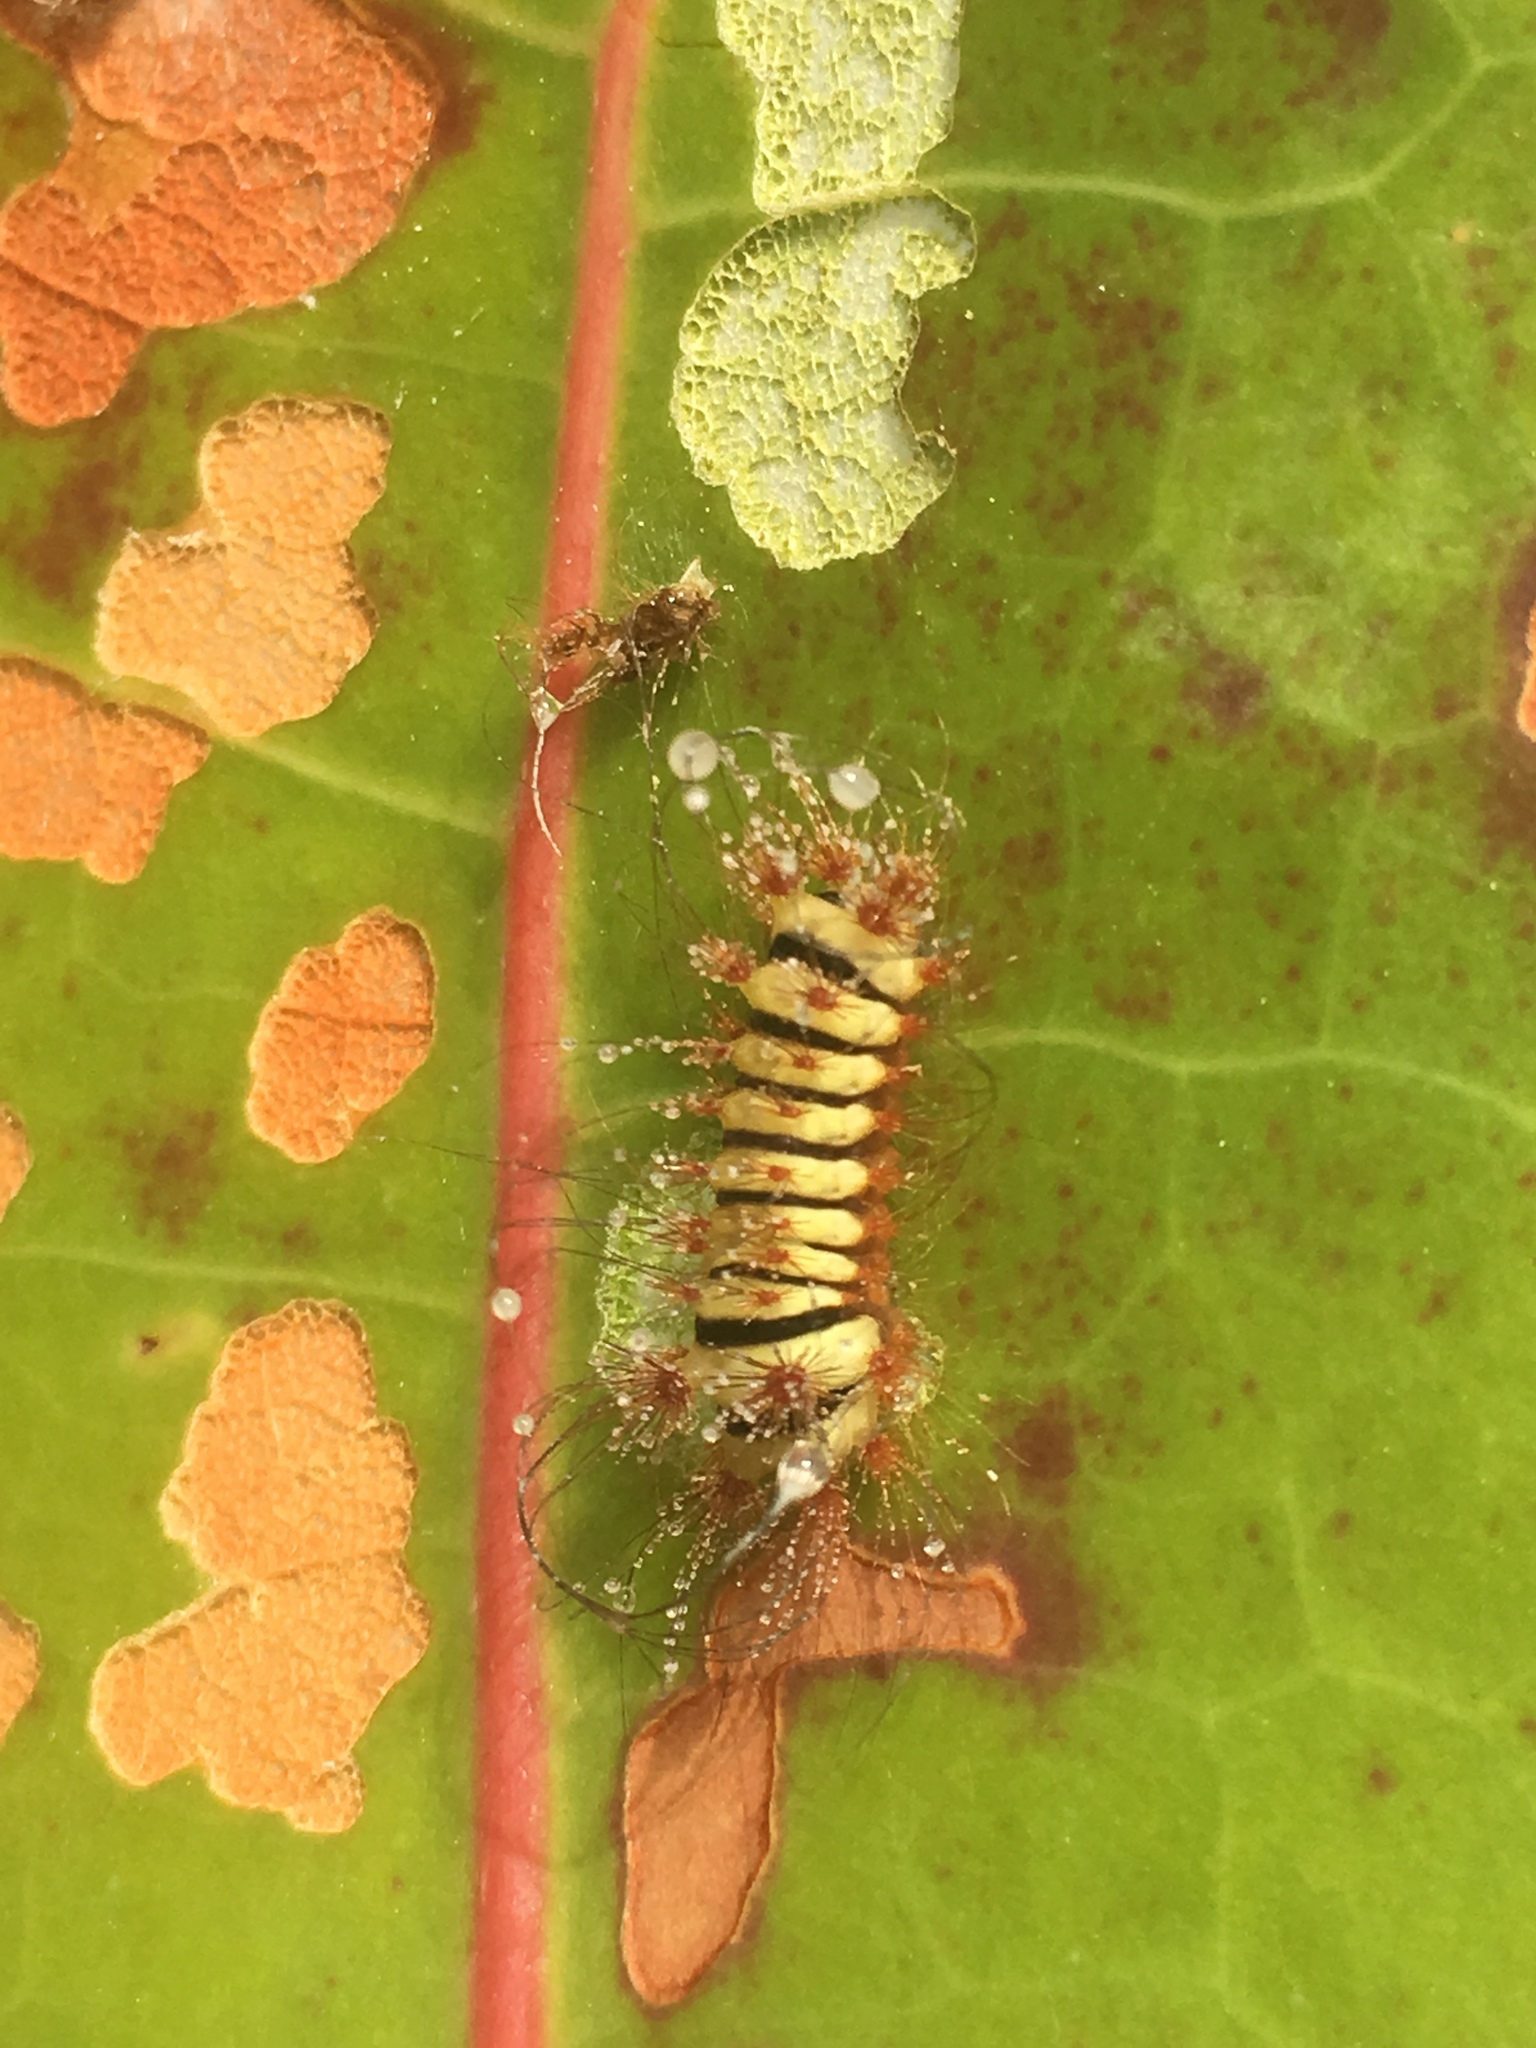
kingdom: Animalia
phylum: Arthropoda
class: Insecta
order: Lepidoptera
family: Megalopygidae
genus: Megalopyge
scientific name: Megalopyge lanata
